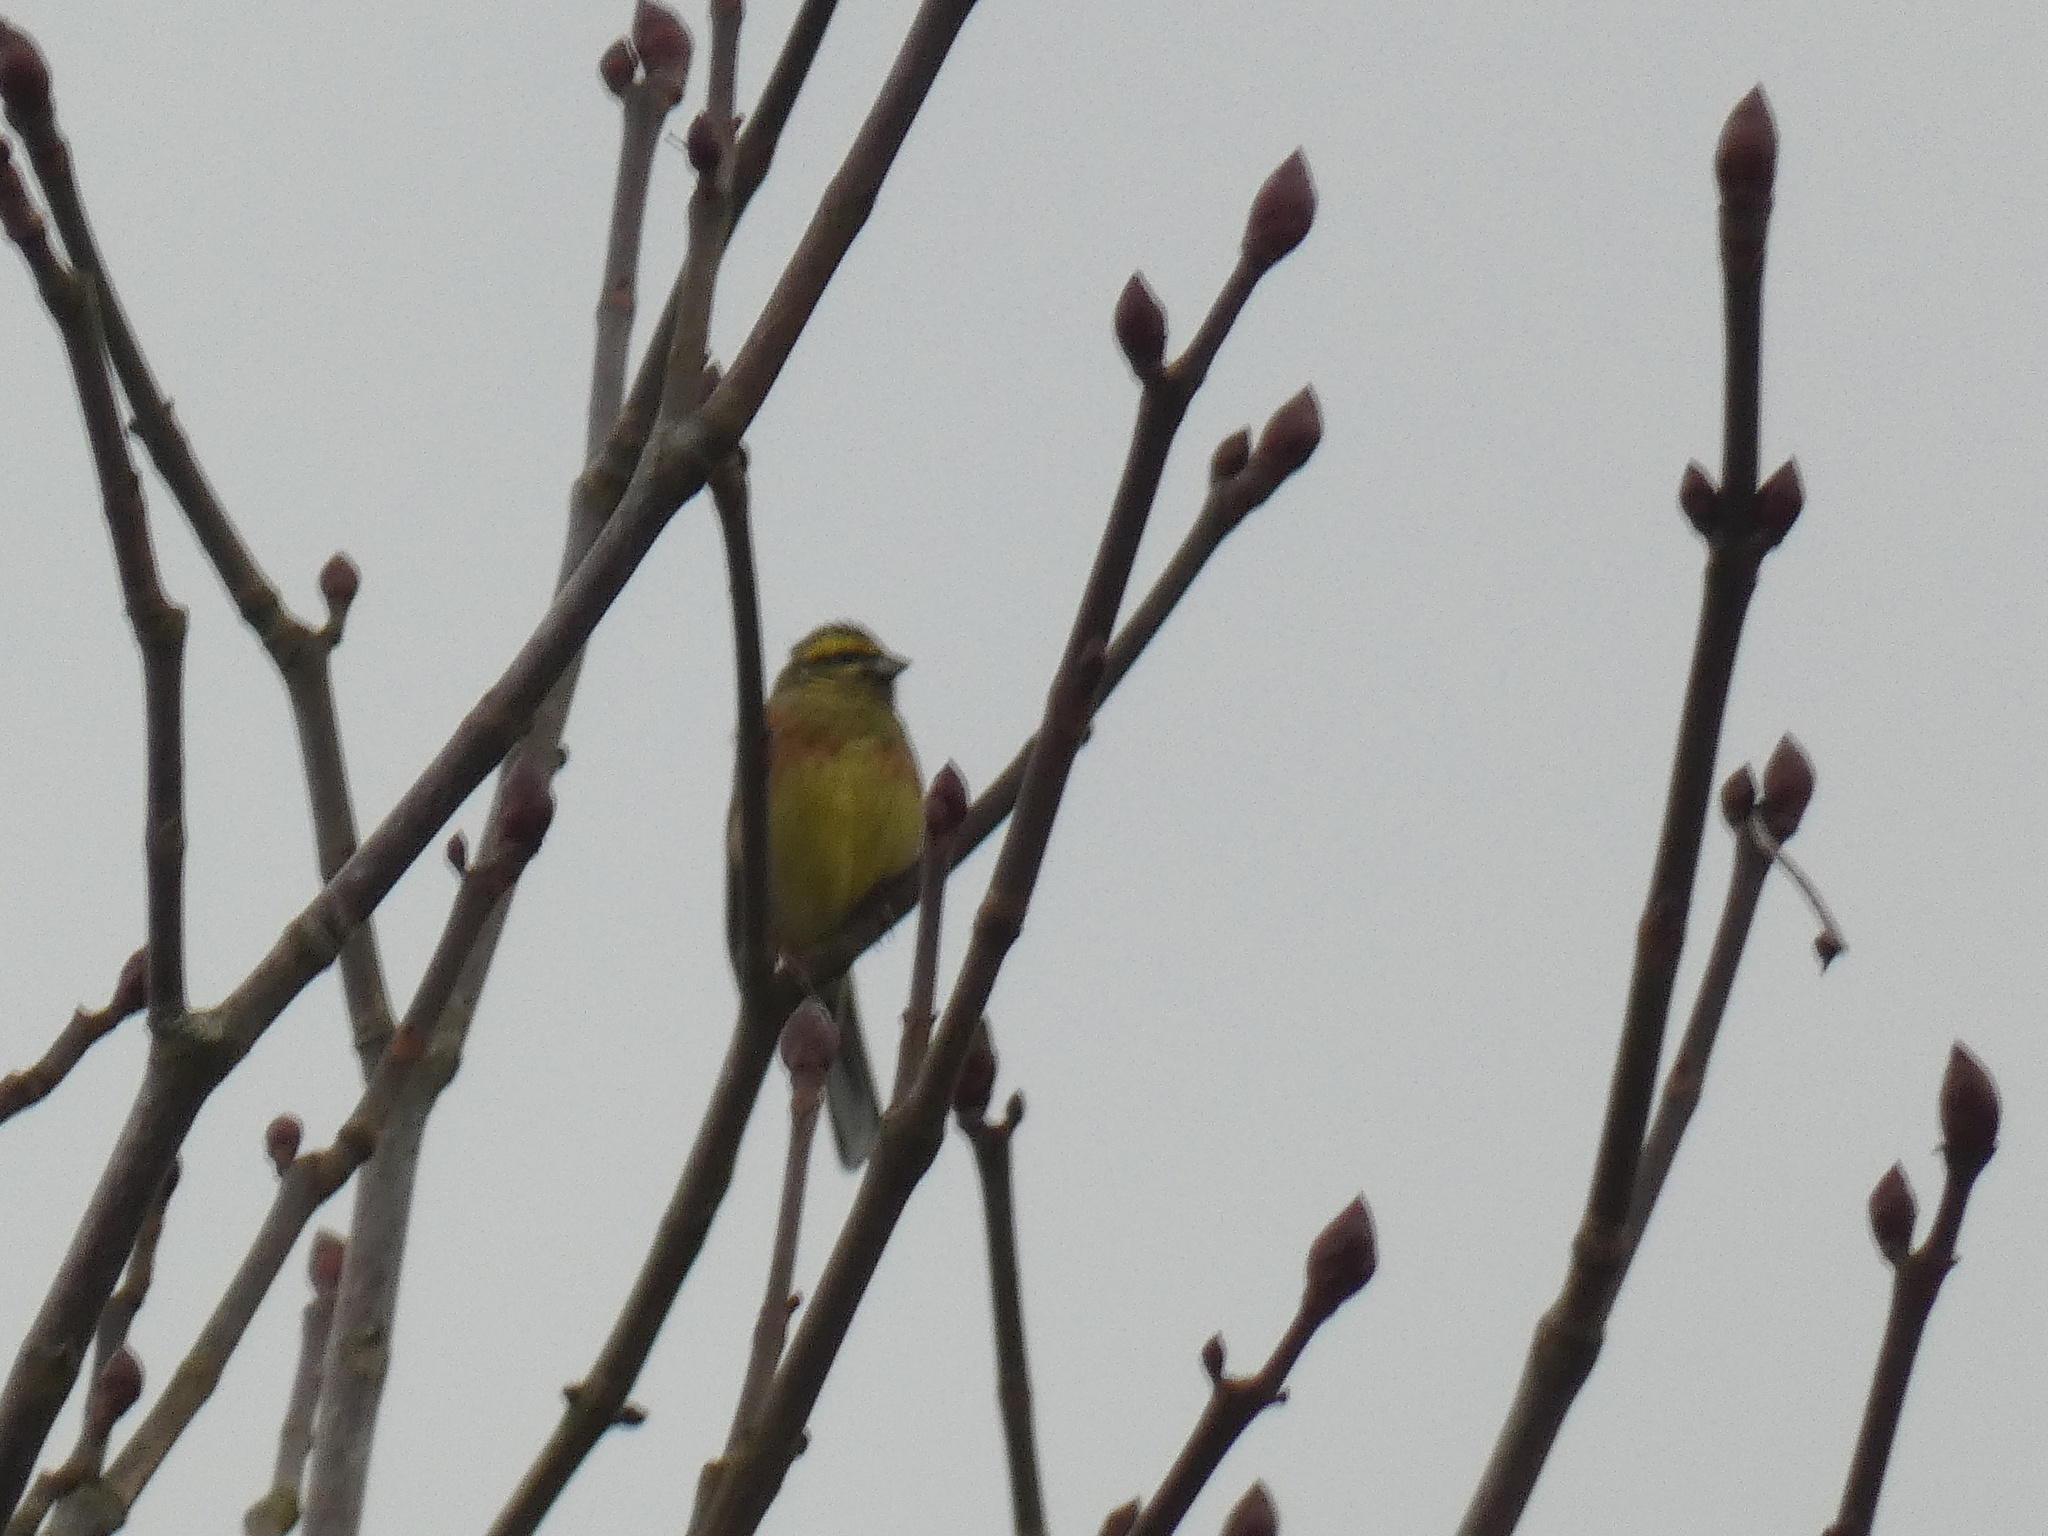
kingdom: Animalia
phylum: Chordata
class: Aves
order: Passeriformes
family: Emberizidae
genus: Emberiza
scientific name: Emberiza cirlus
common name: Cirl bunting
